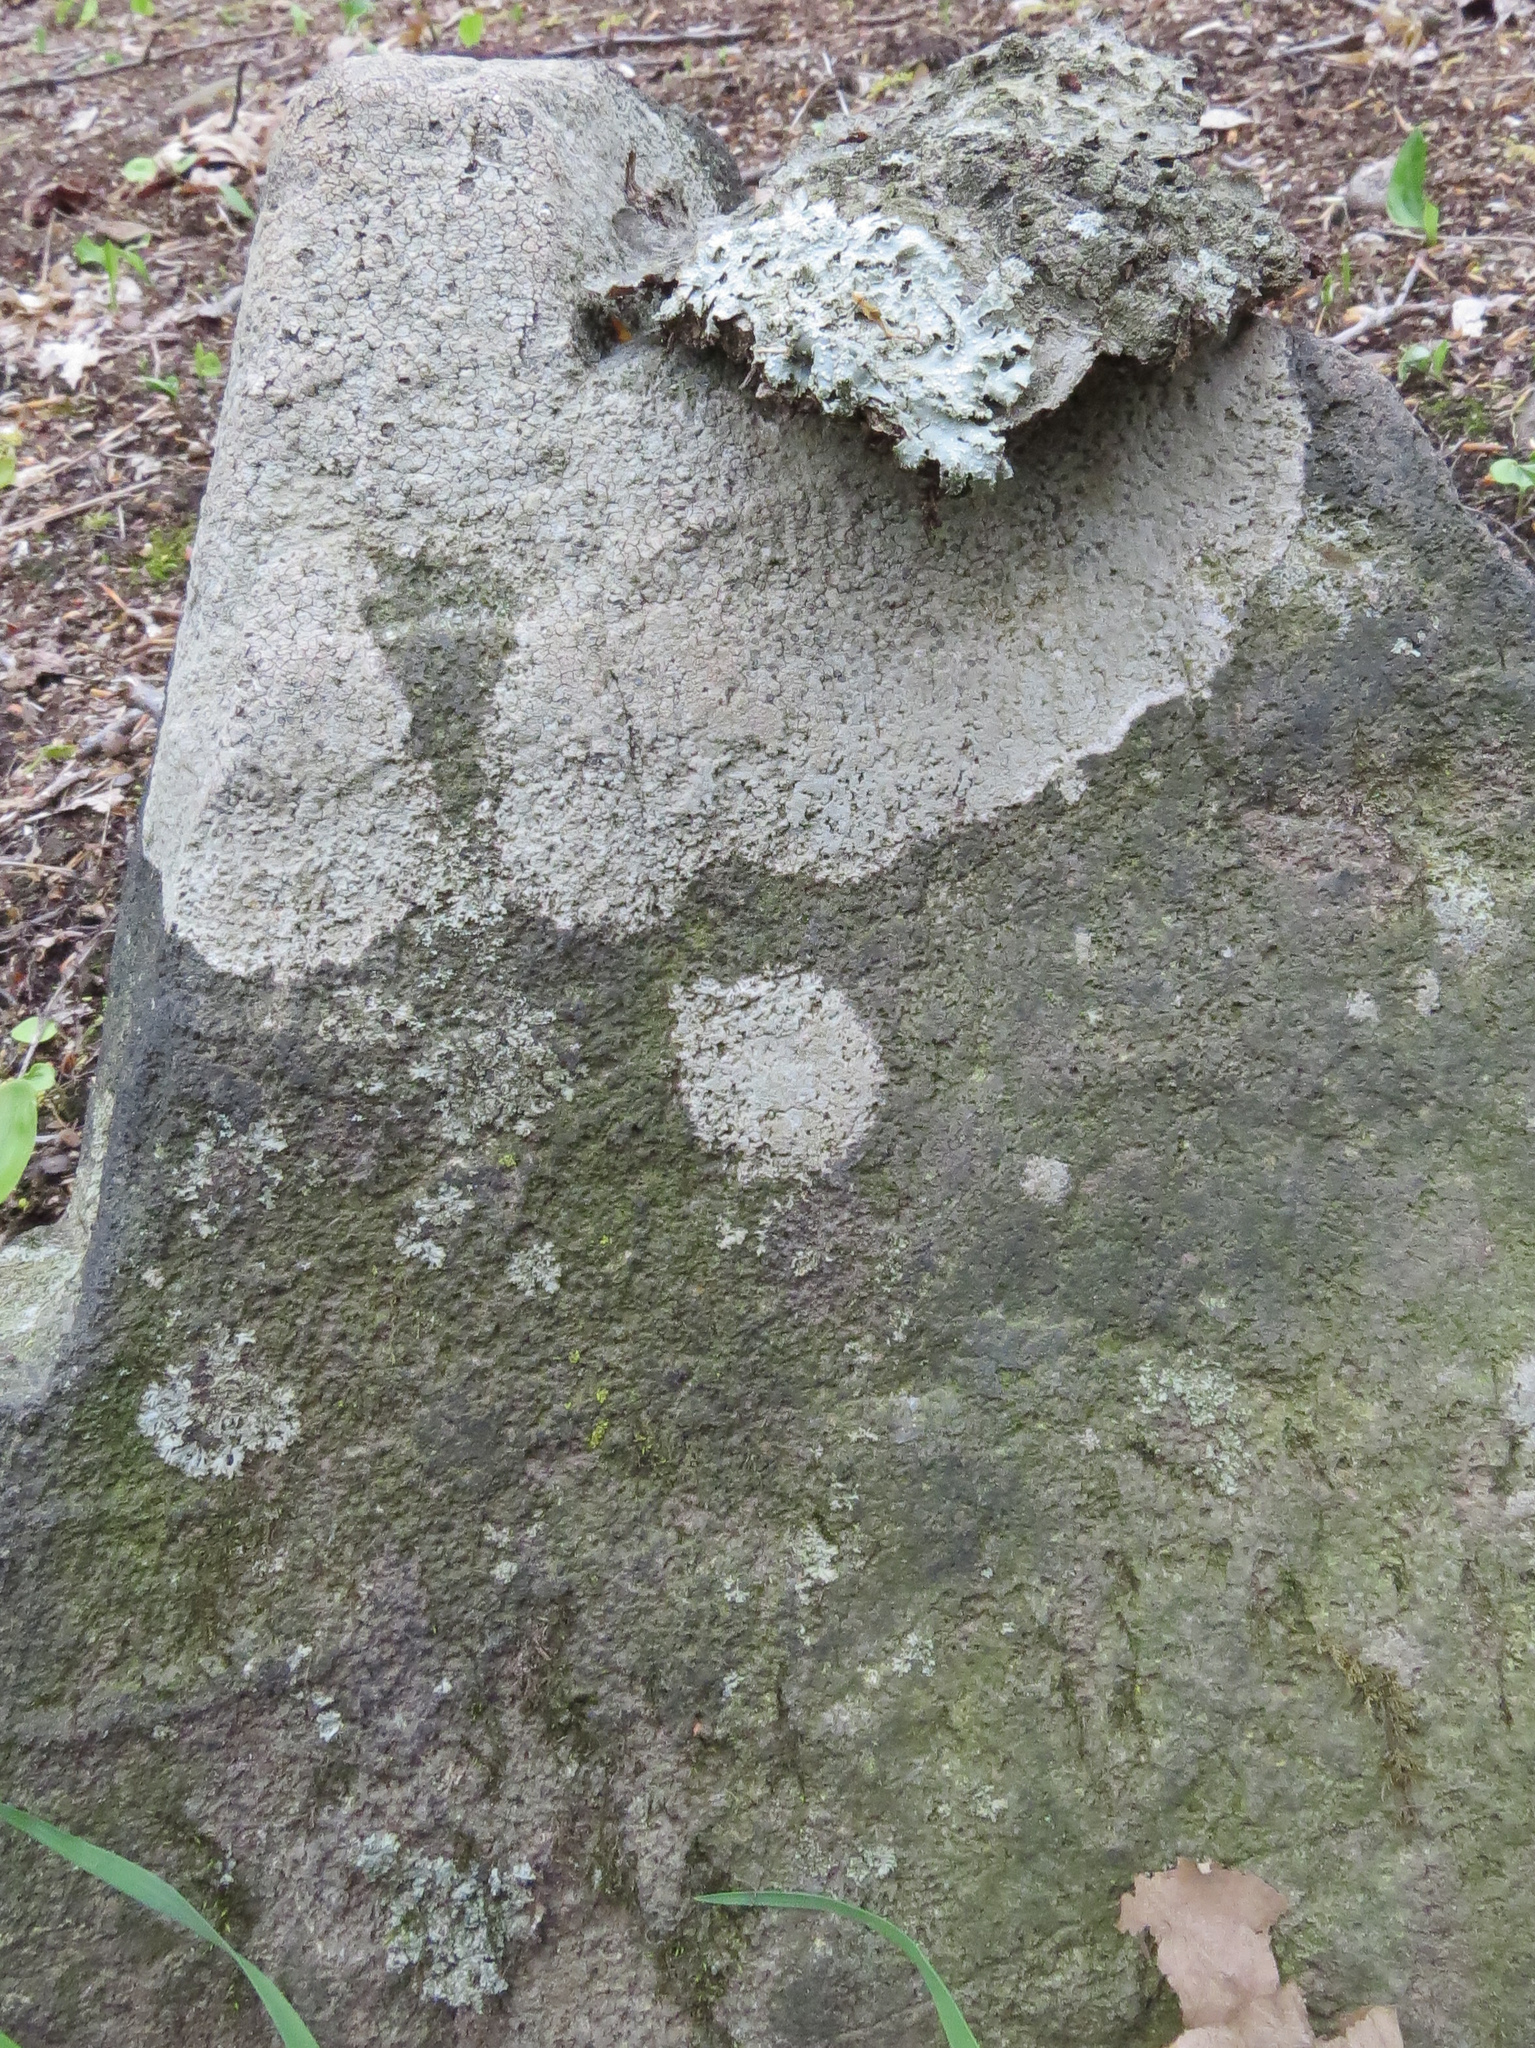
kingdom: Fungi
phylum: Ascomycota
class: Lecanoromycetes
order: Lecanorales
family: Parmeliaceae
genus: Parmelia
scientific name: Parmelia sulcata
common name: Netted shield lichen
